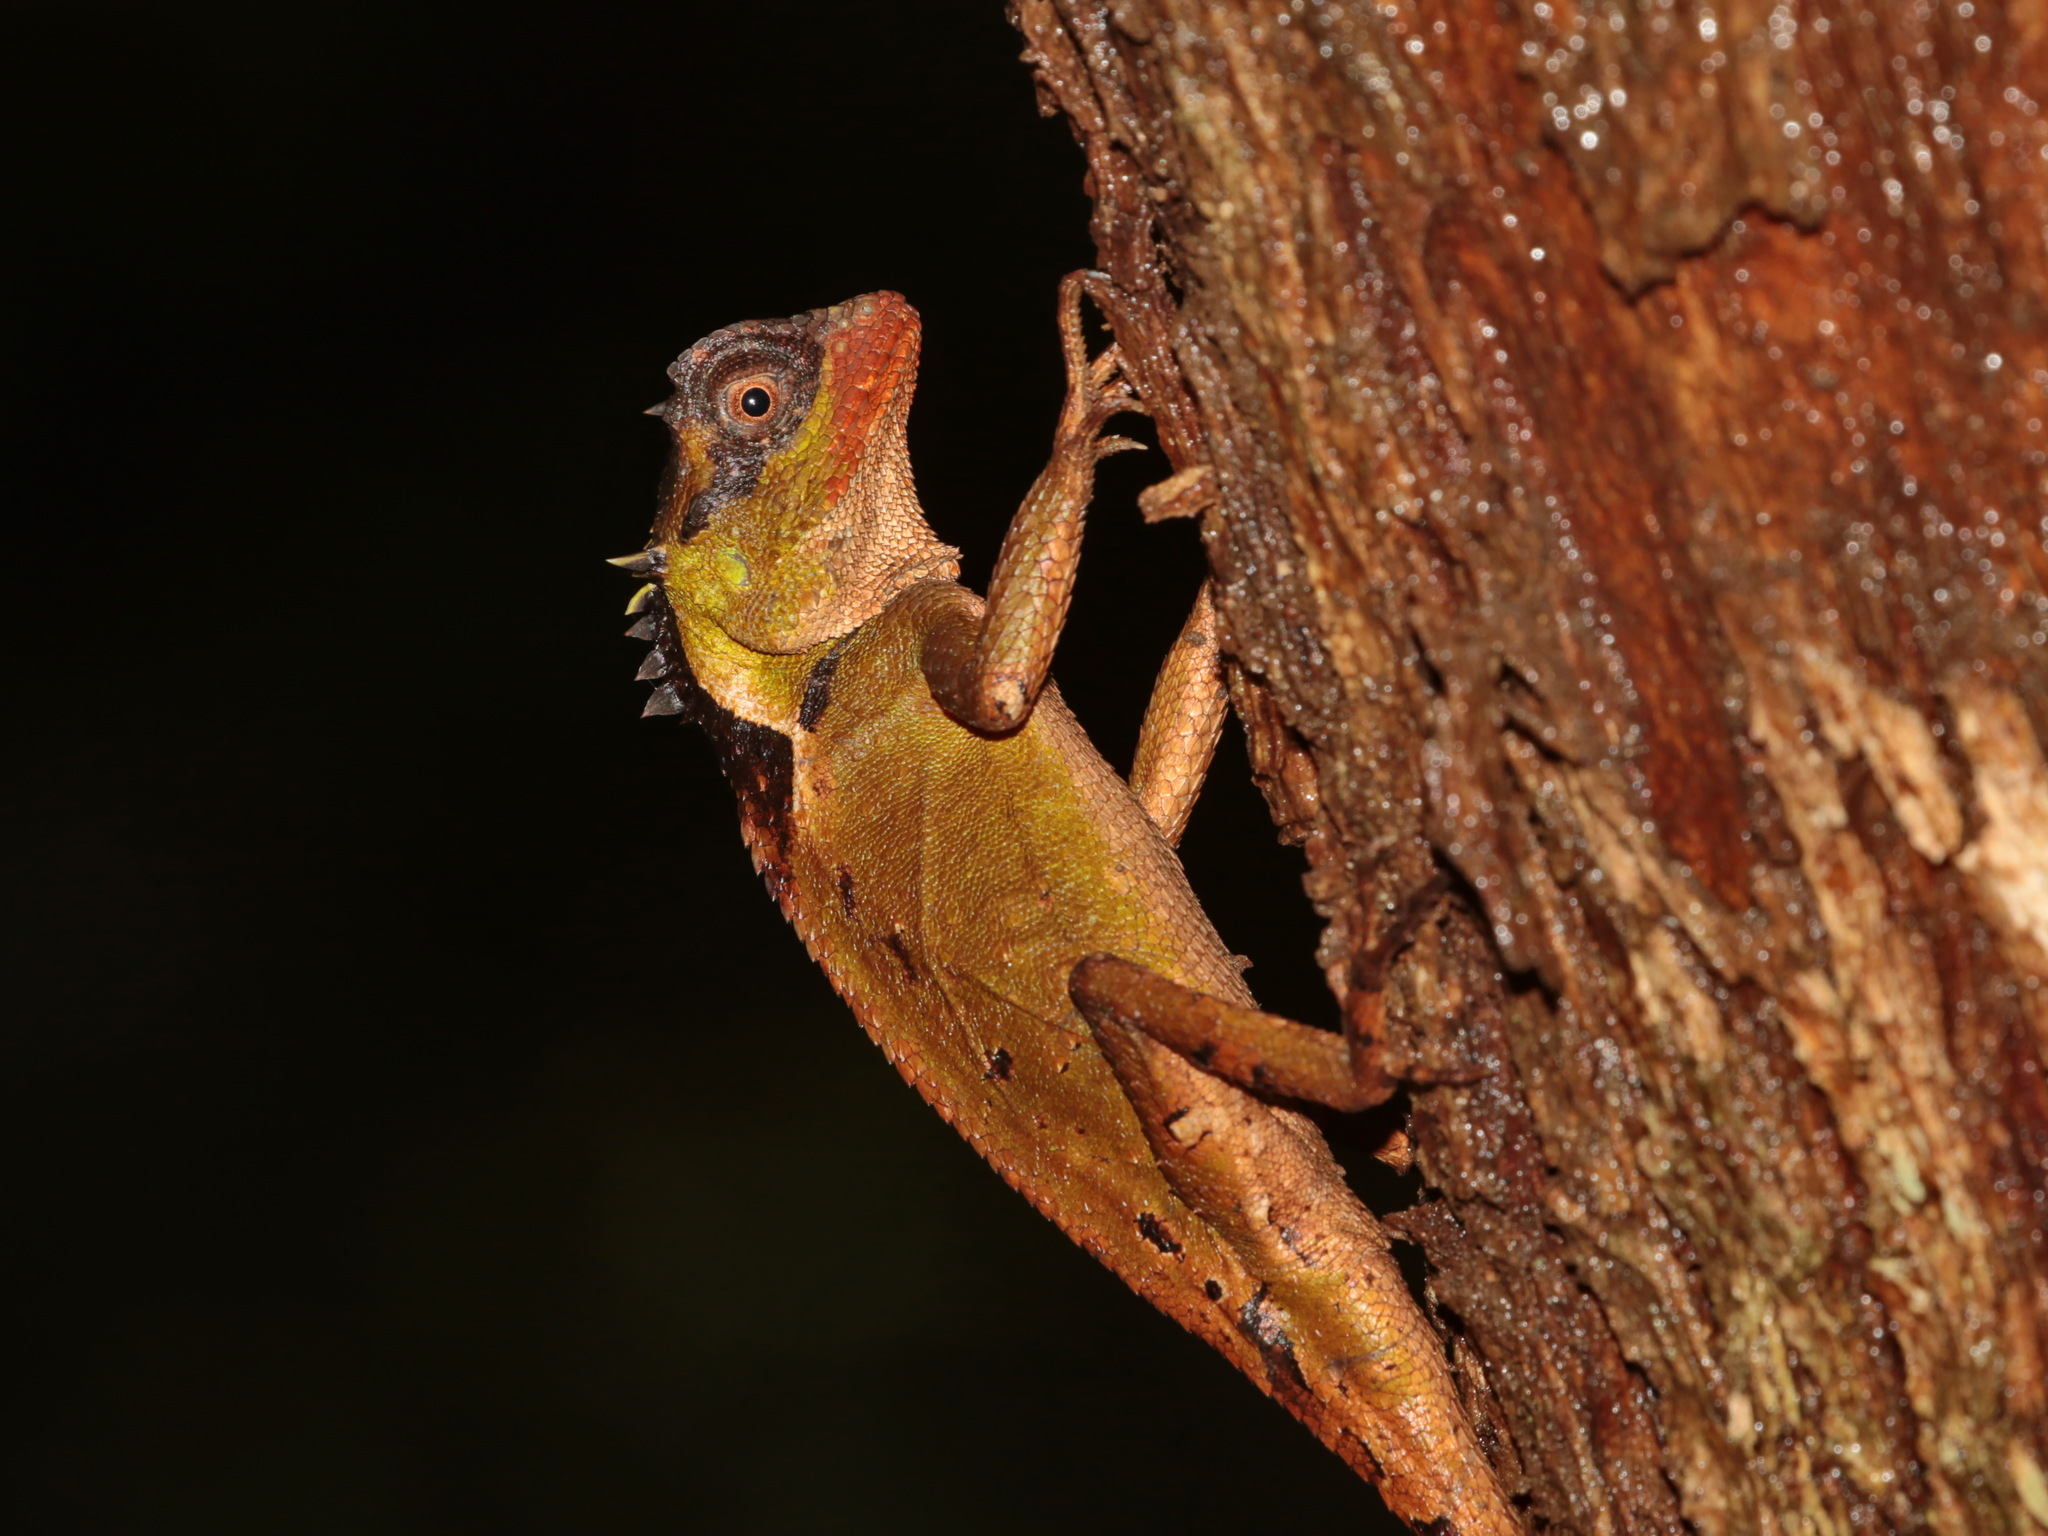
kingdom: Animalia
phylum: Chordata
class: Squamata
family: Agamidae
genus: Acanthosaura
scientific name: Acanthosaura rubrilabris
